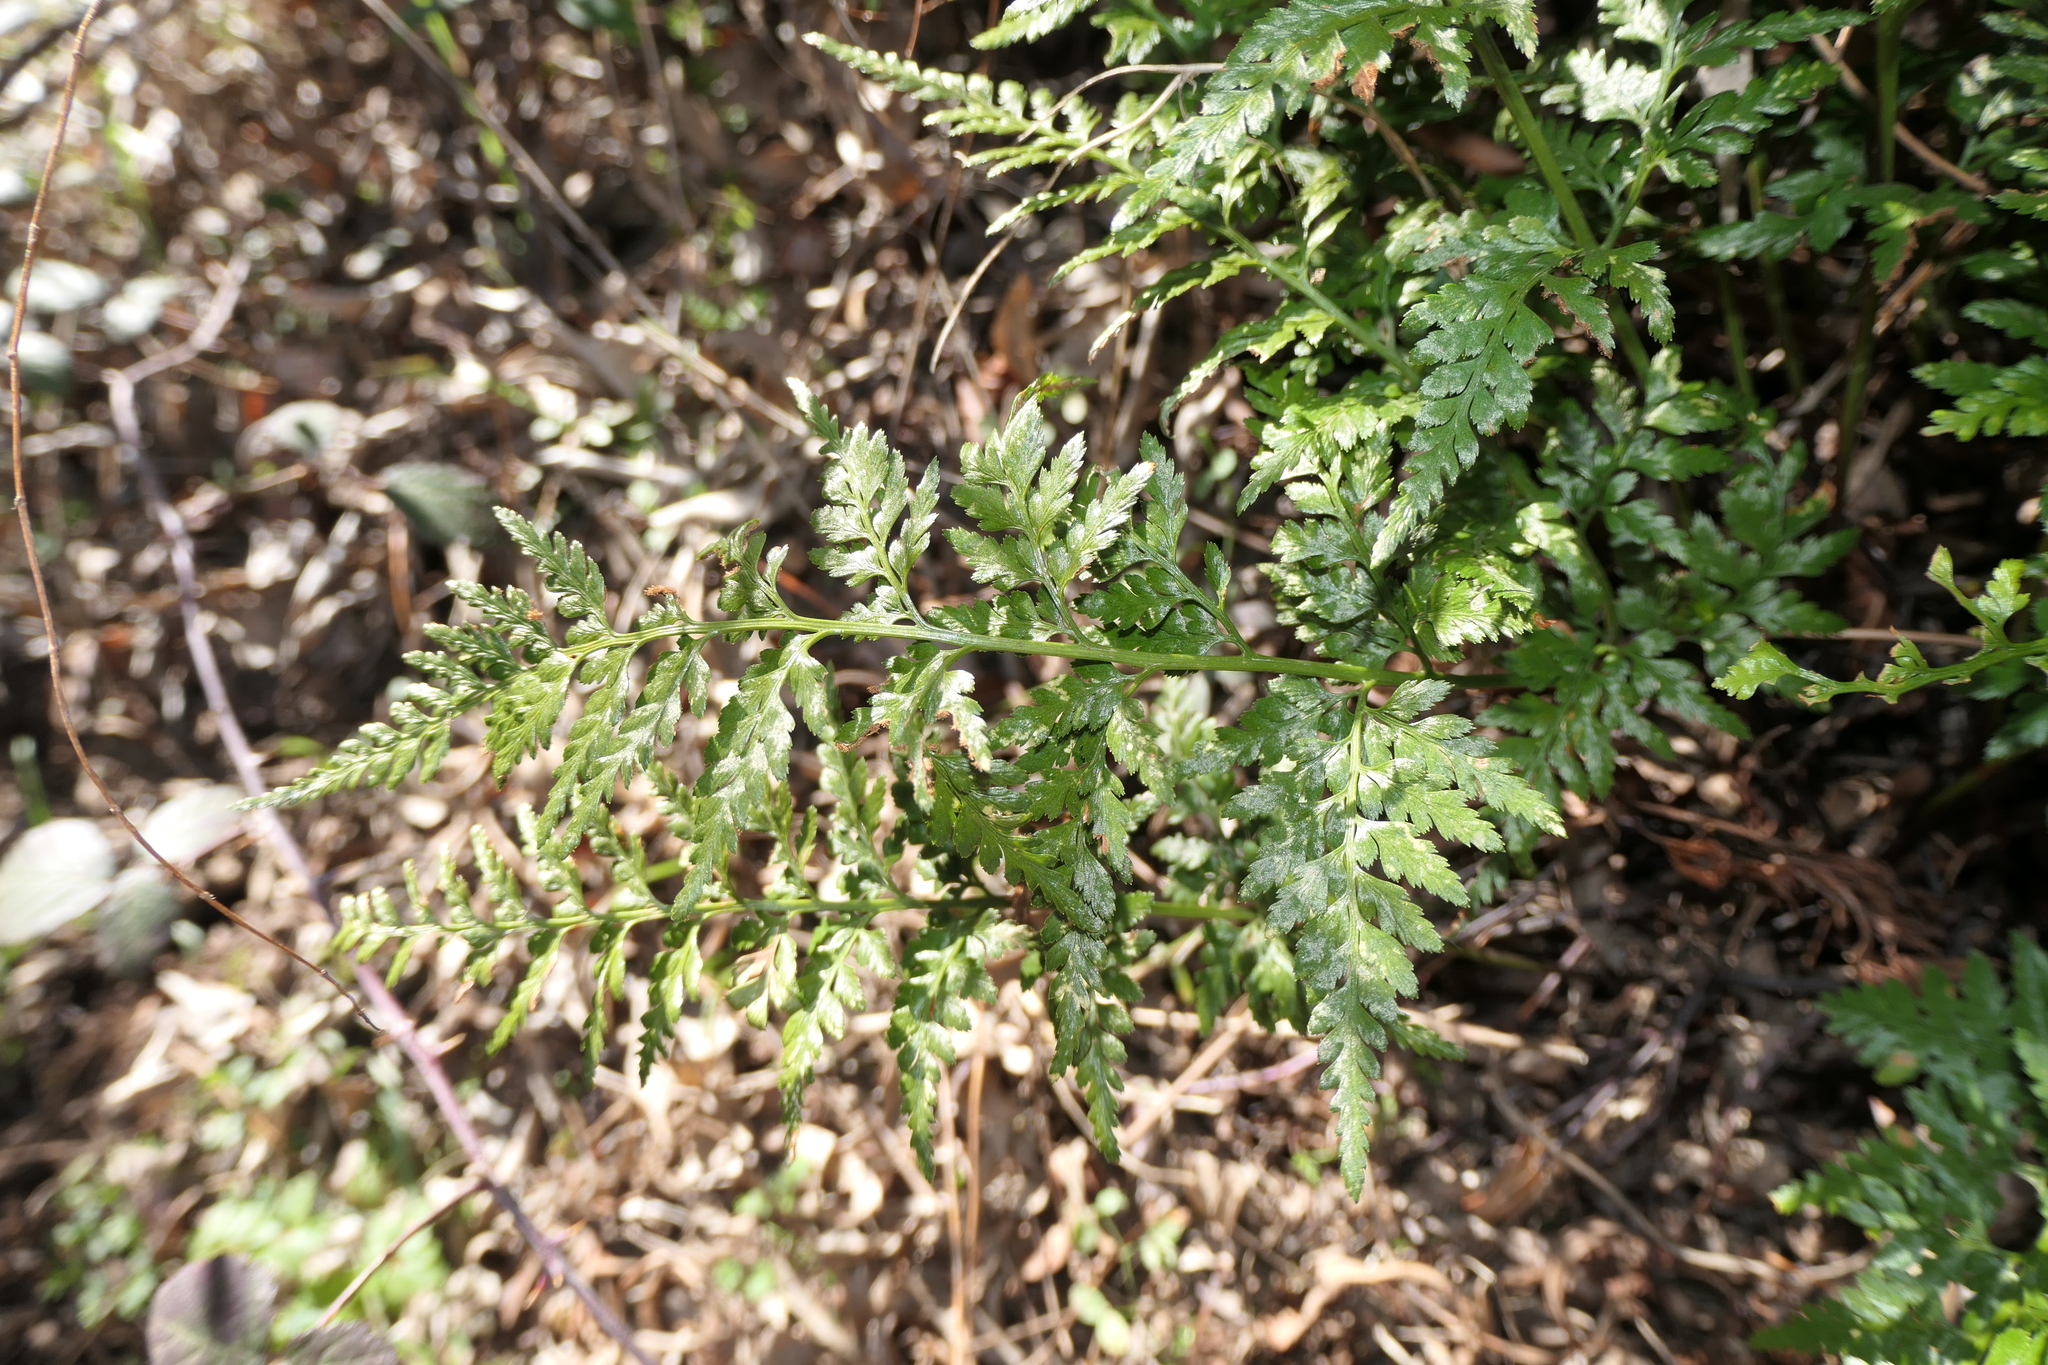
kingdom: Plantae
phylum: Tracheophyta
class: Polypodiopsida
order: Polypodiales
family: Aspleniaceae
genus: Asplenium
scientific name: Asplenium adiantum-nigrum
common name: Black spleenwort
